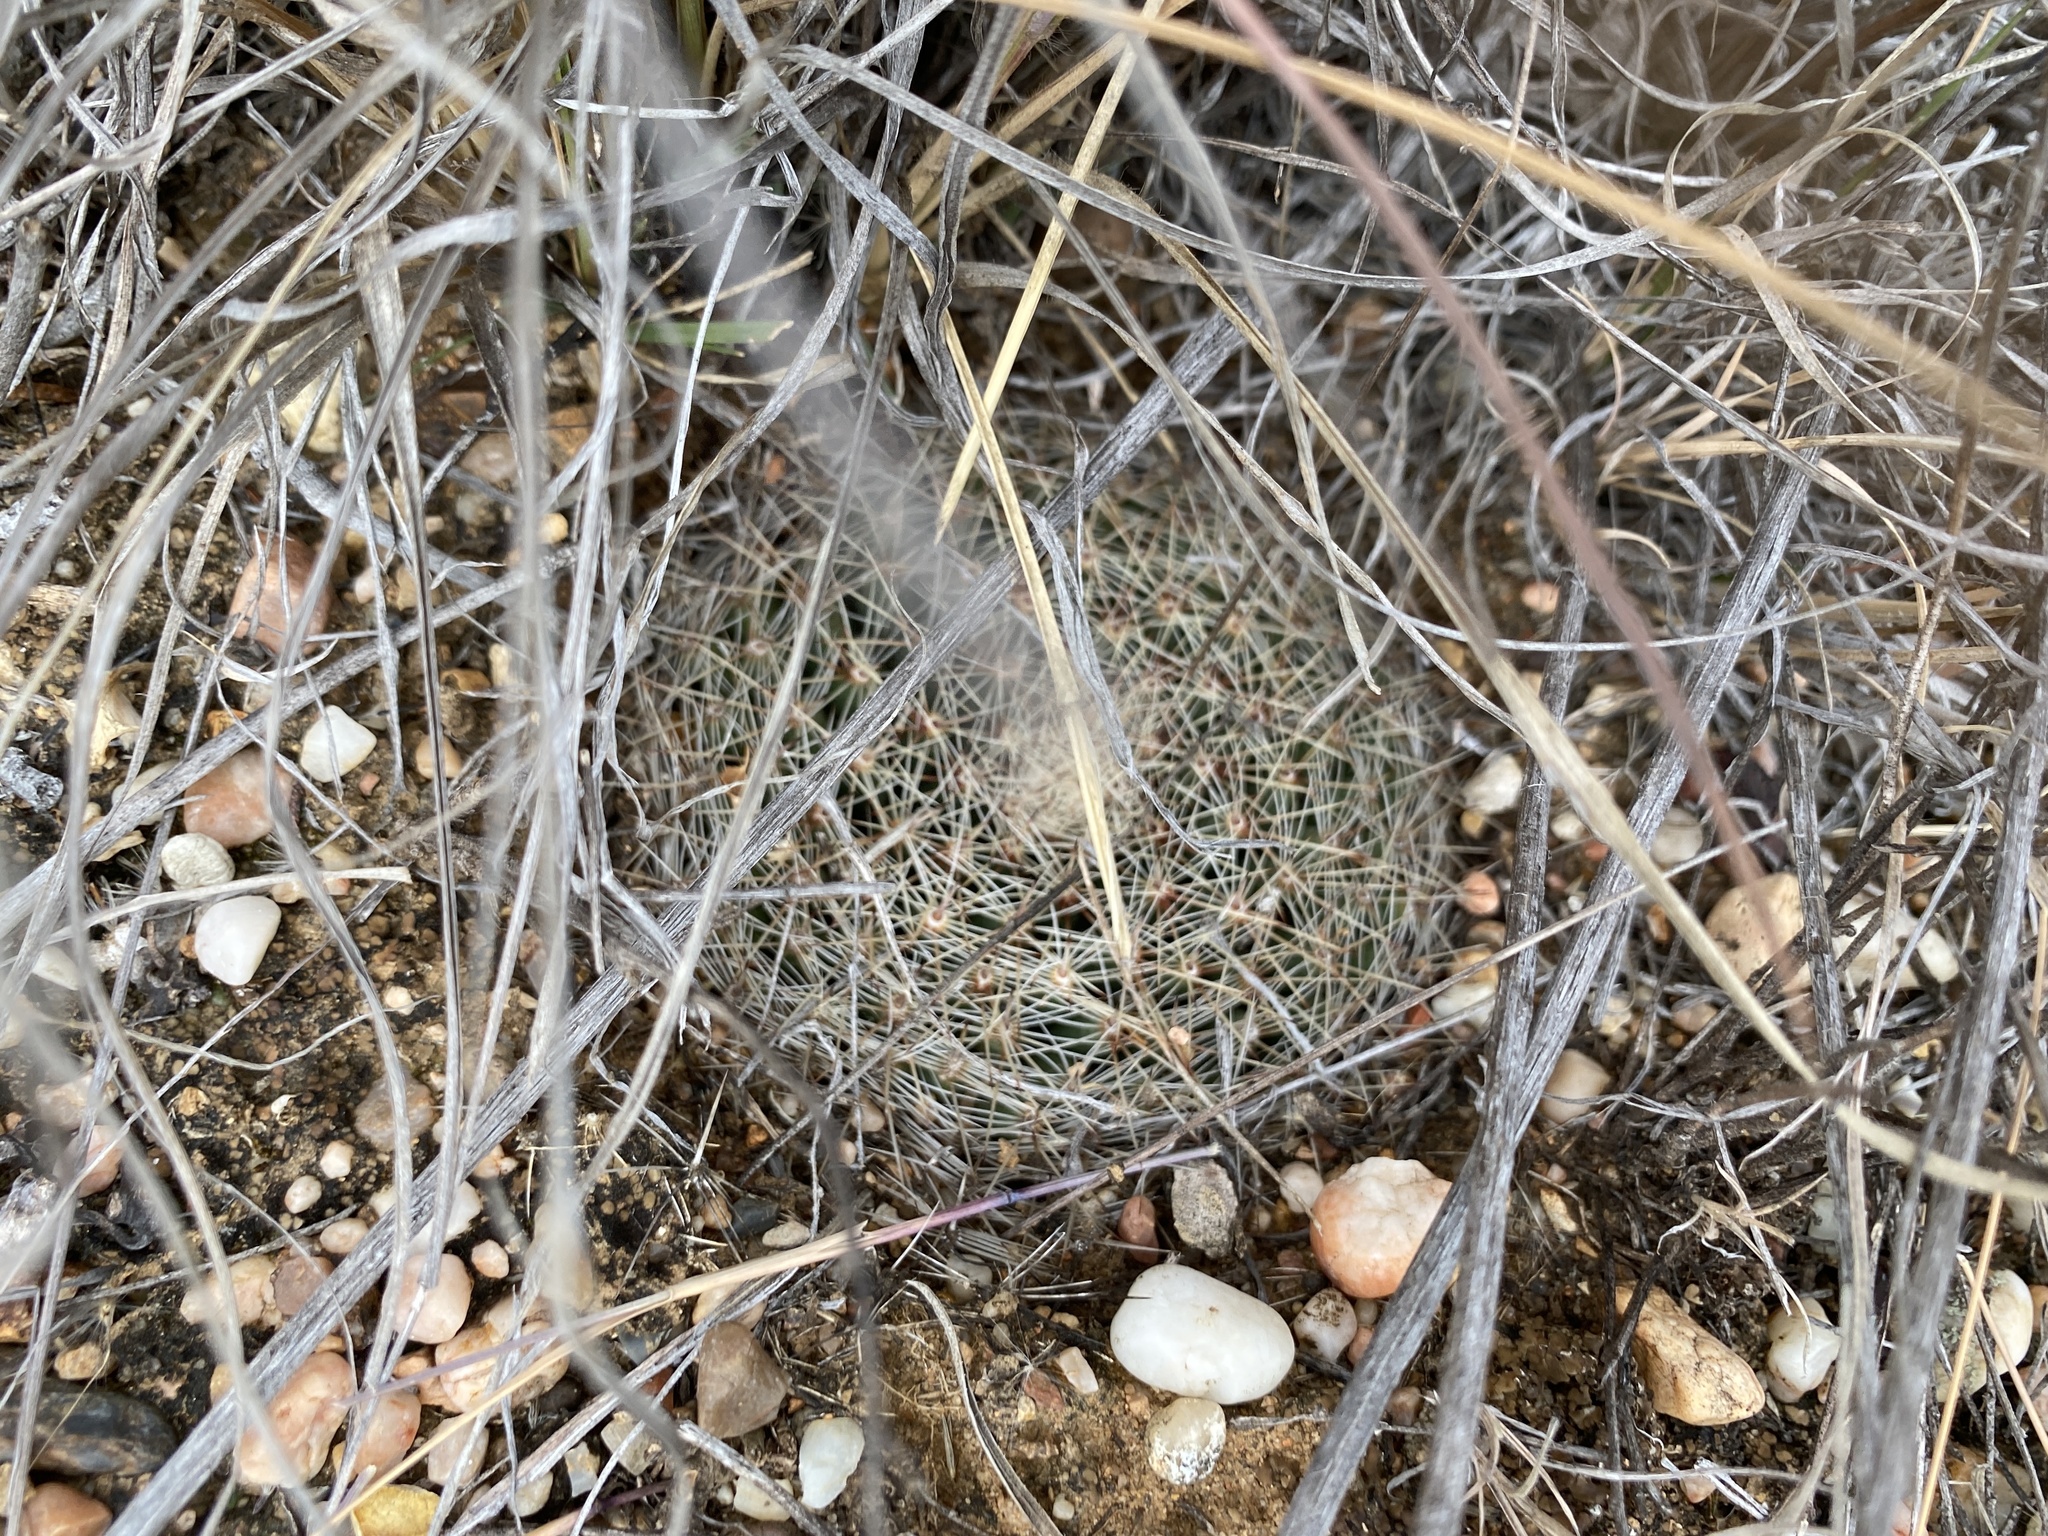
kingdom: Plantae
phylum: Tracheophyta
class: Magnoliopsida
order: Caryophyllales
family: Cactaceae
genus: Mammillaria
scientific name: Mammillaria heyderi
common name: Little nipple cactus
